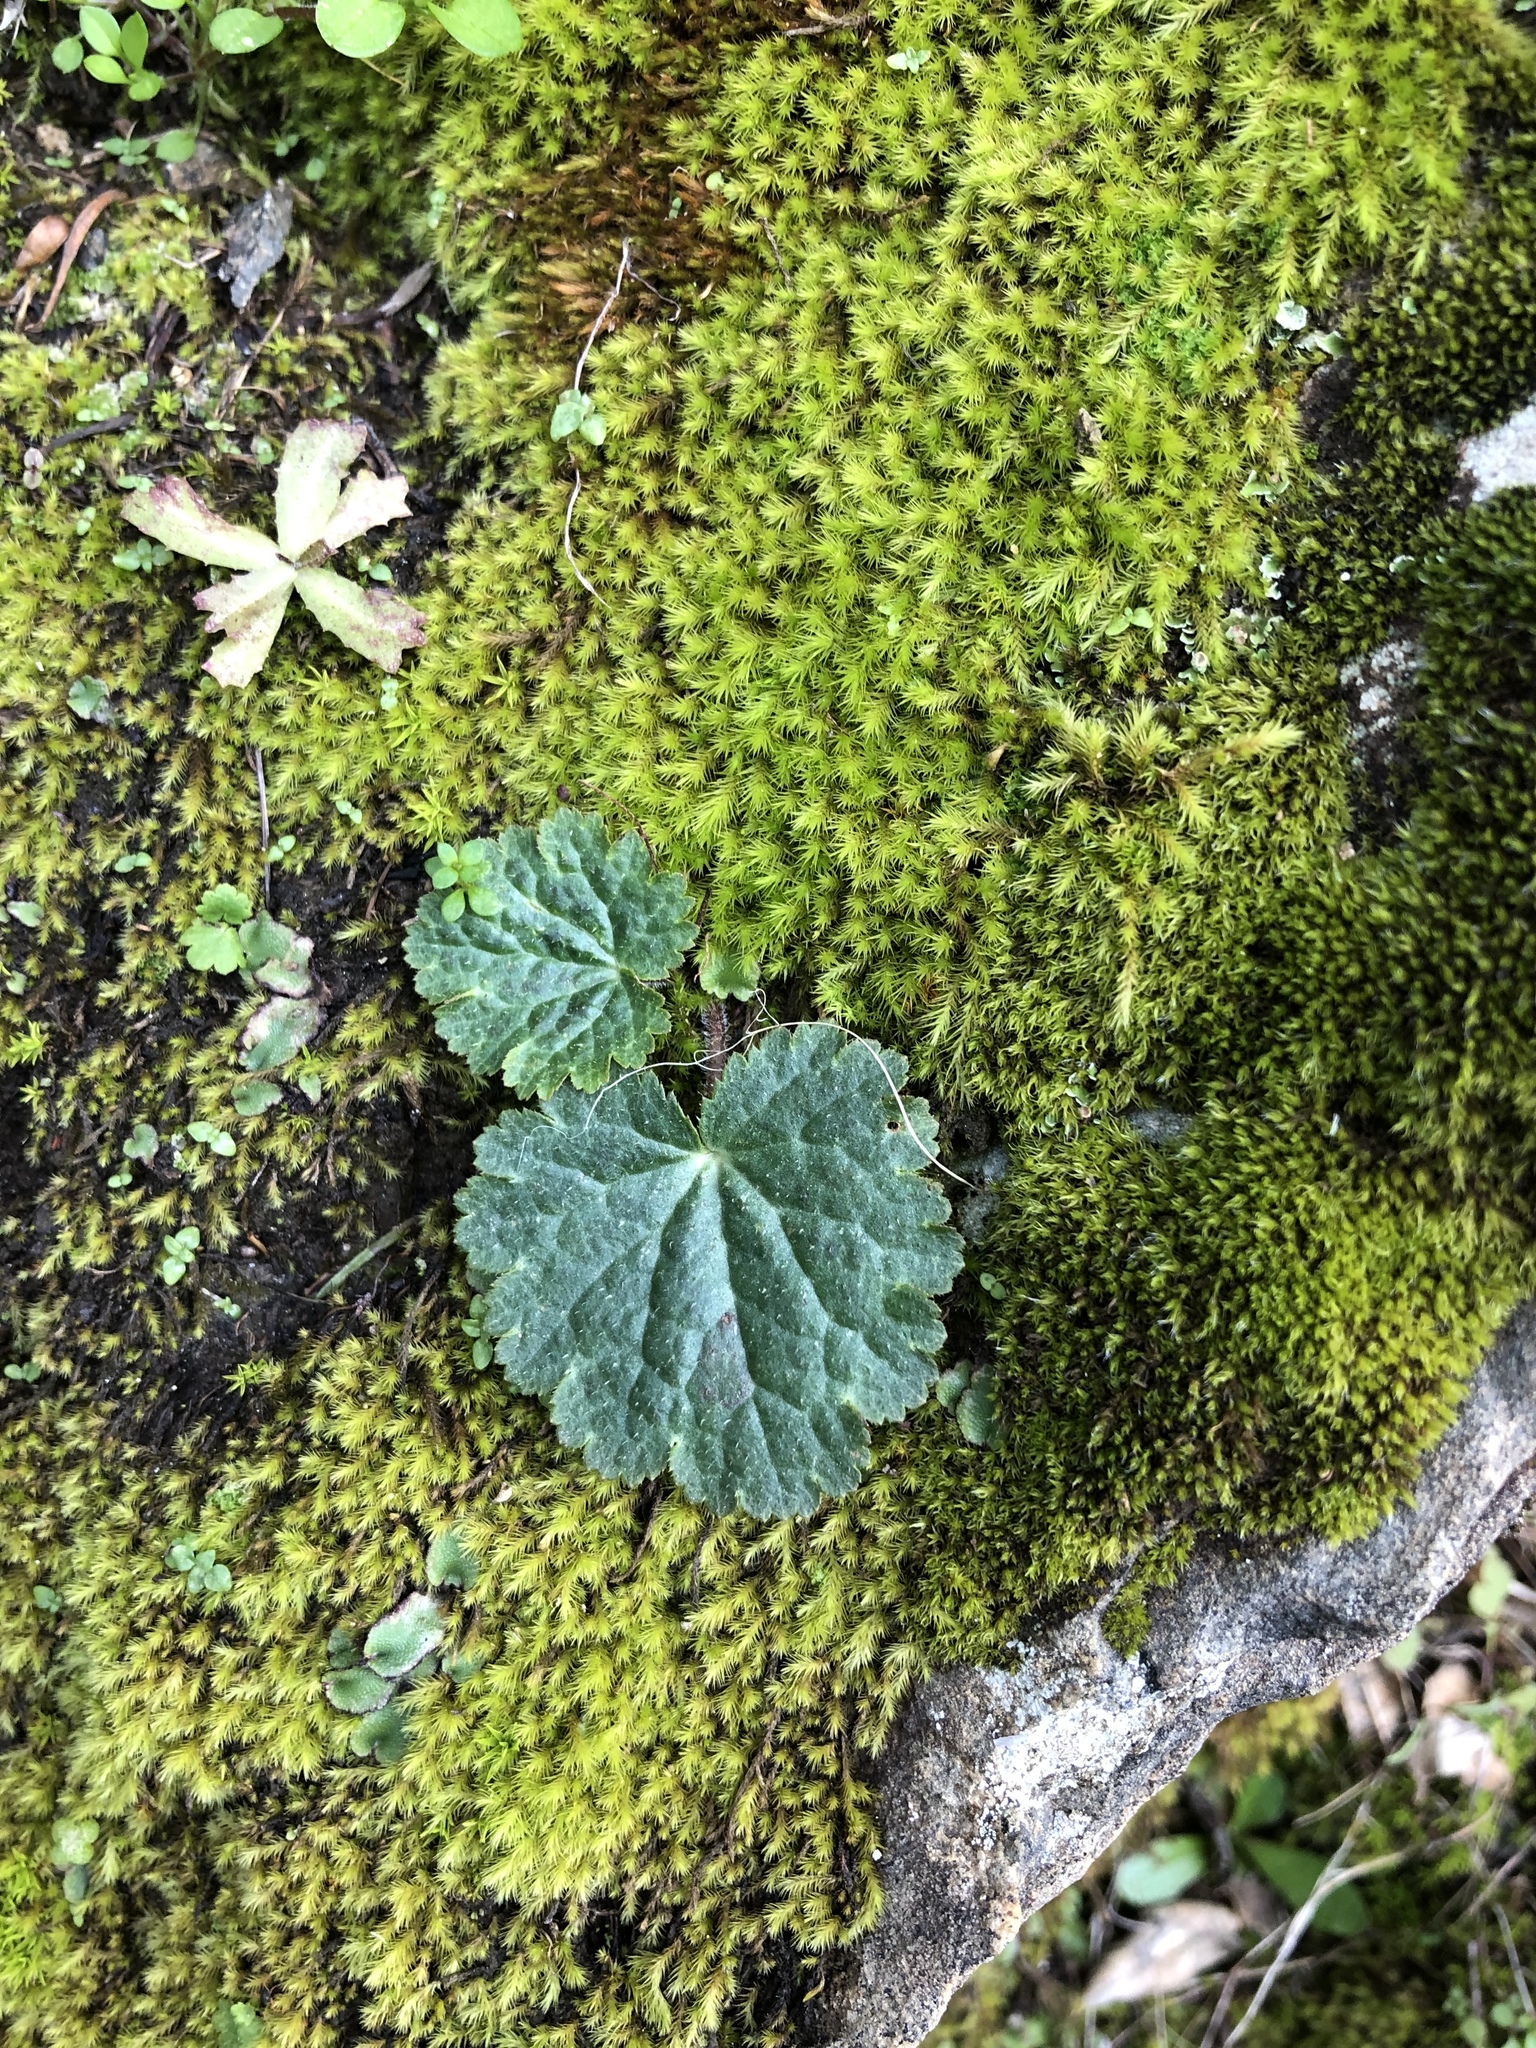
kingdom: Plantae
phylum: Tracheophyta
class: Magnoliopsida
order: Saxifragales
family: Saxifragaceae
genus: Jepsonia
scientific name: Jepsonia parryi
